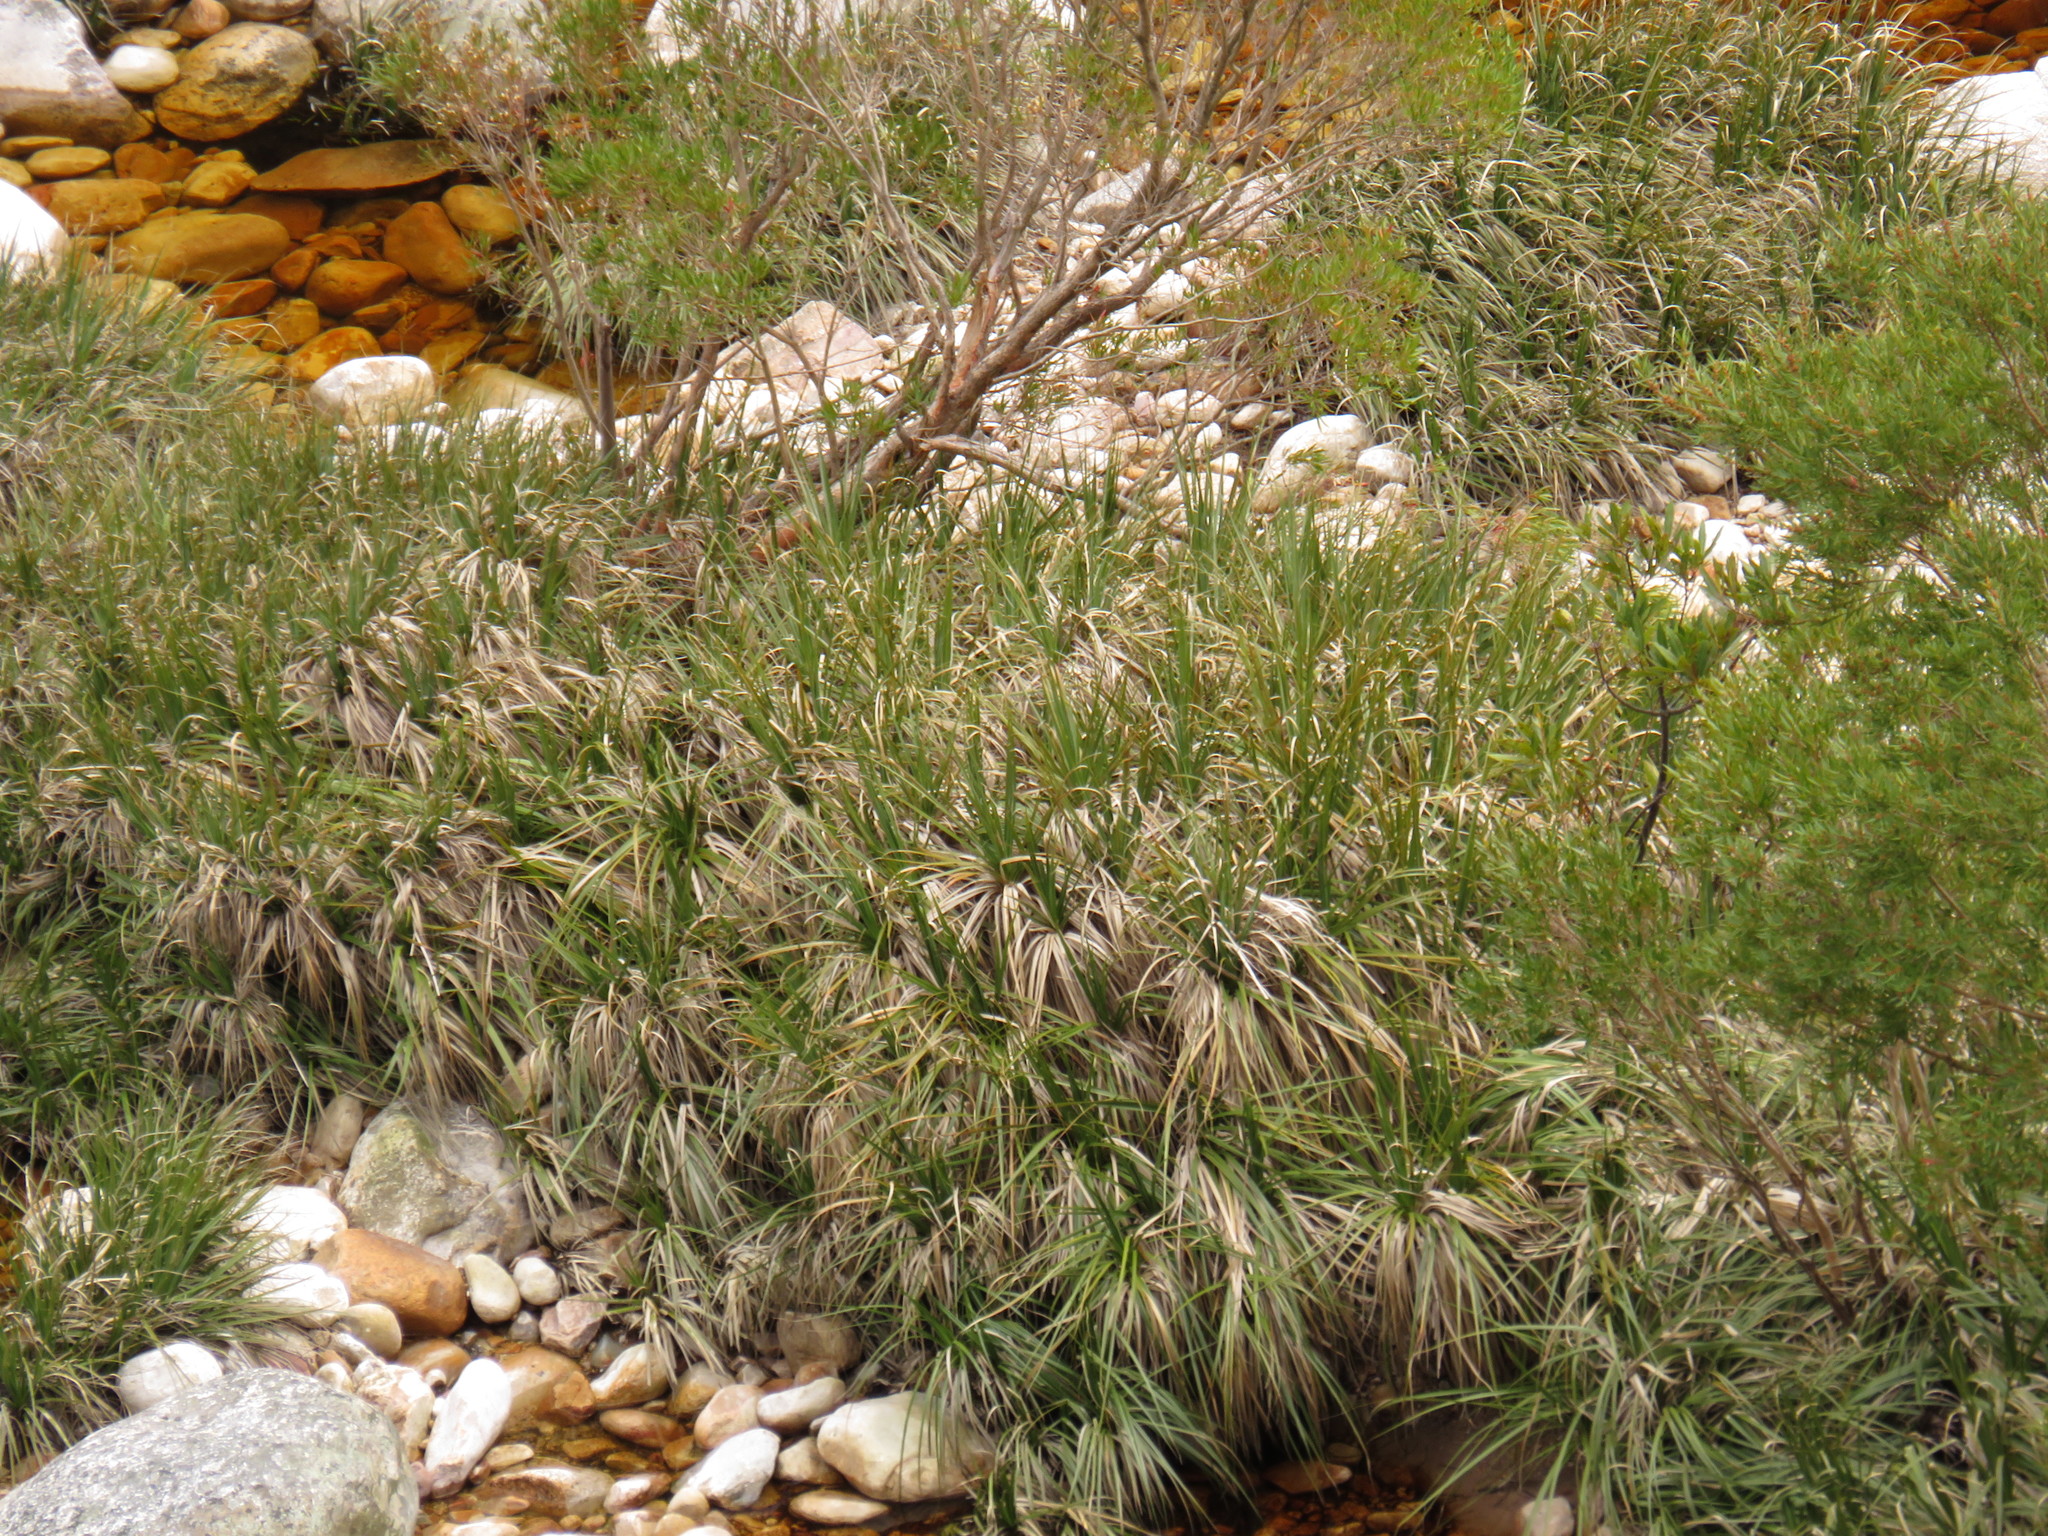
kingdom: Plantae
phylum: Tracheophyta
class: Liliopsida
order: Poales
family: Thurniaceae
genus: Prionium
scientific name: Prionium serratum
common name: Palmiet
